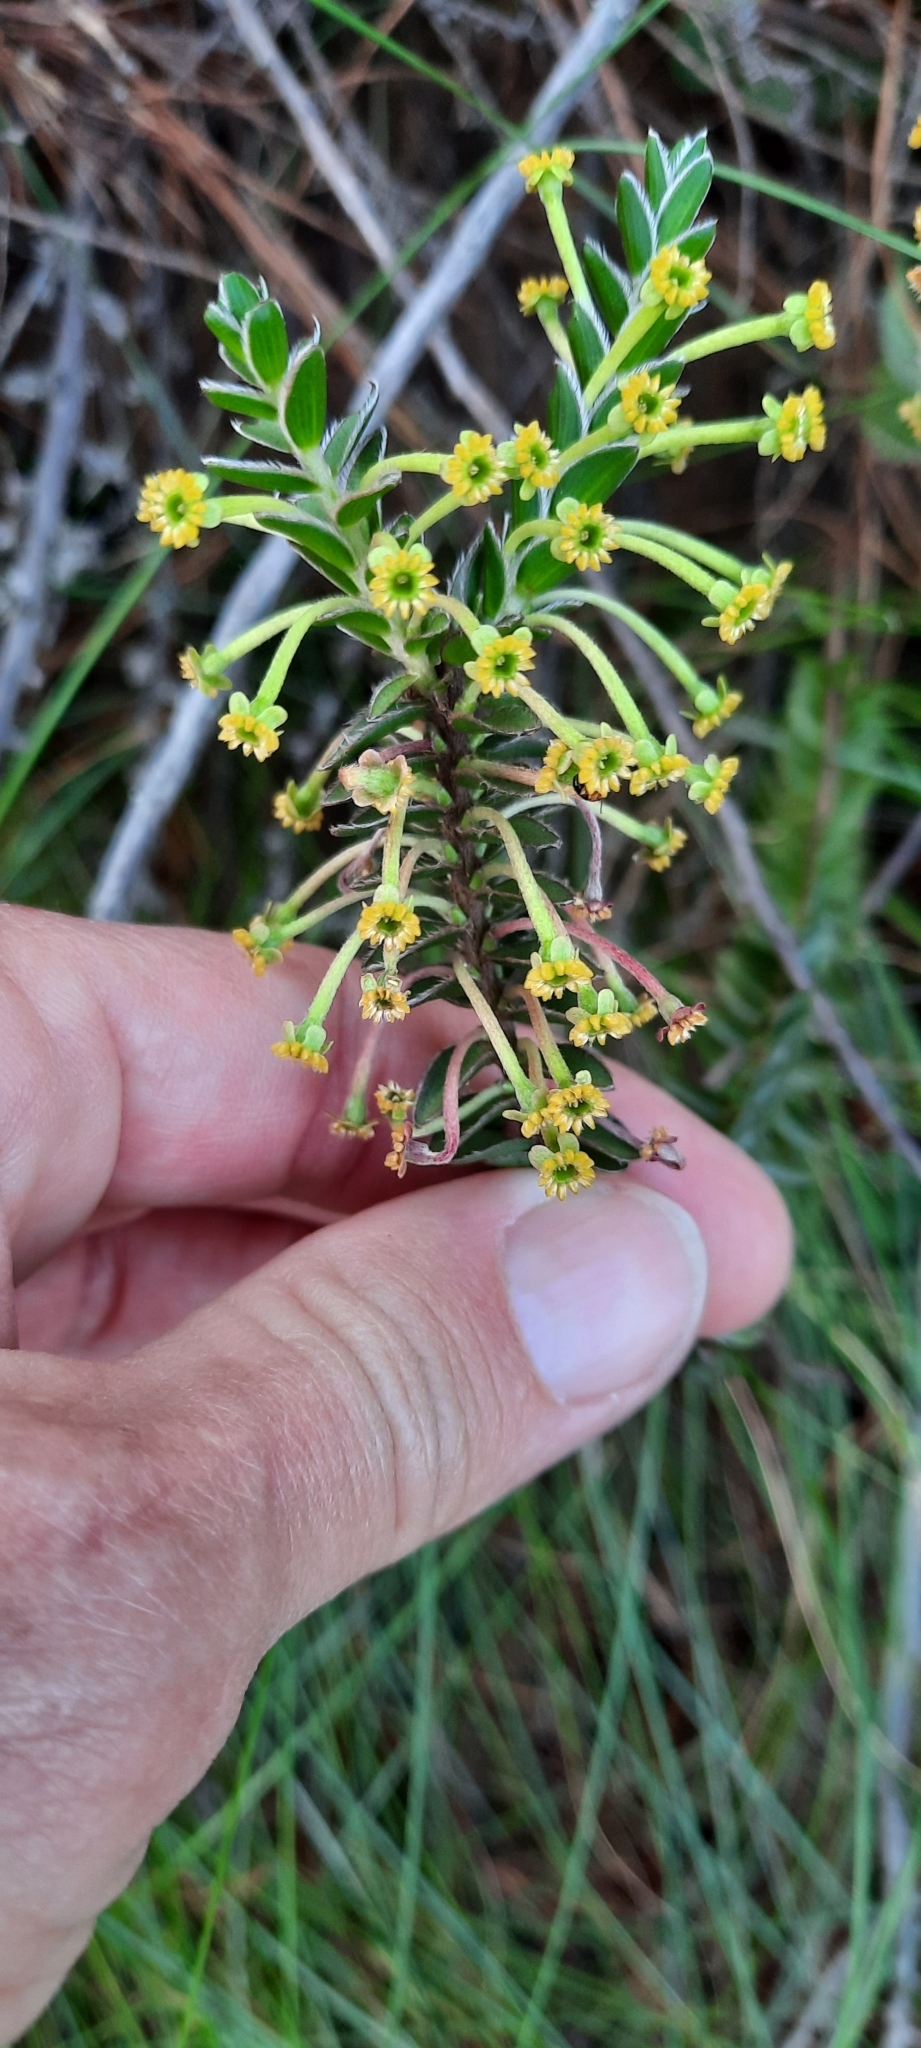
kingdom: Plantae
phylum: Tracheophyta
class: Magnoliopsida
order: Malvales
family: Thymelaeaceae
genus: Struthiola
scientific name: Struthiola argentea
